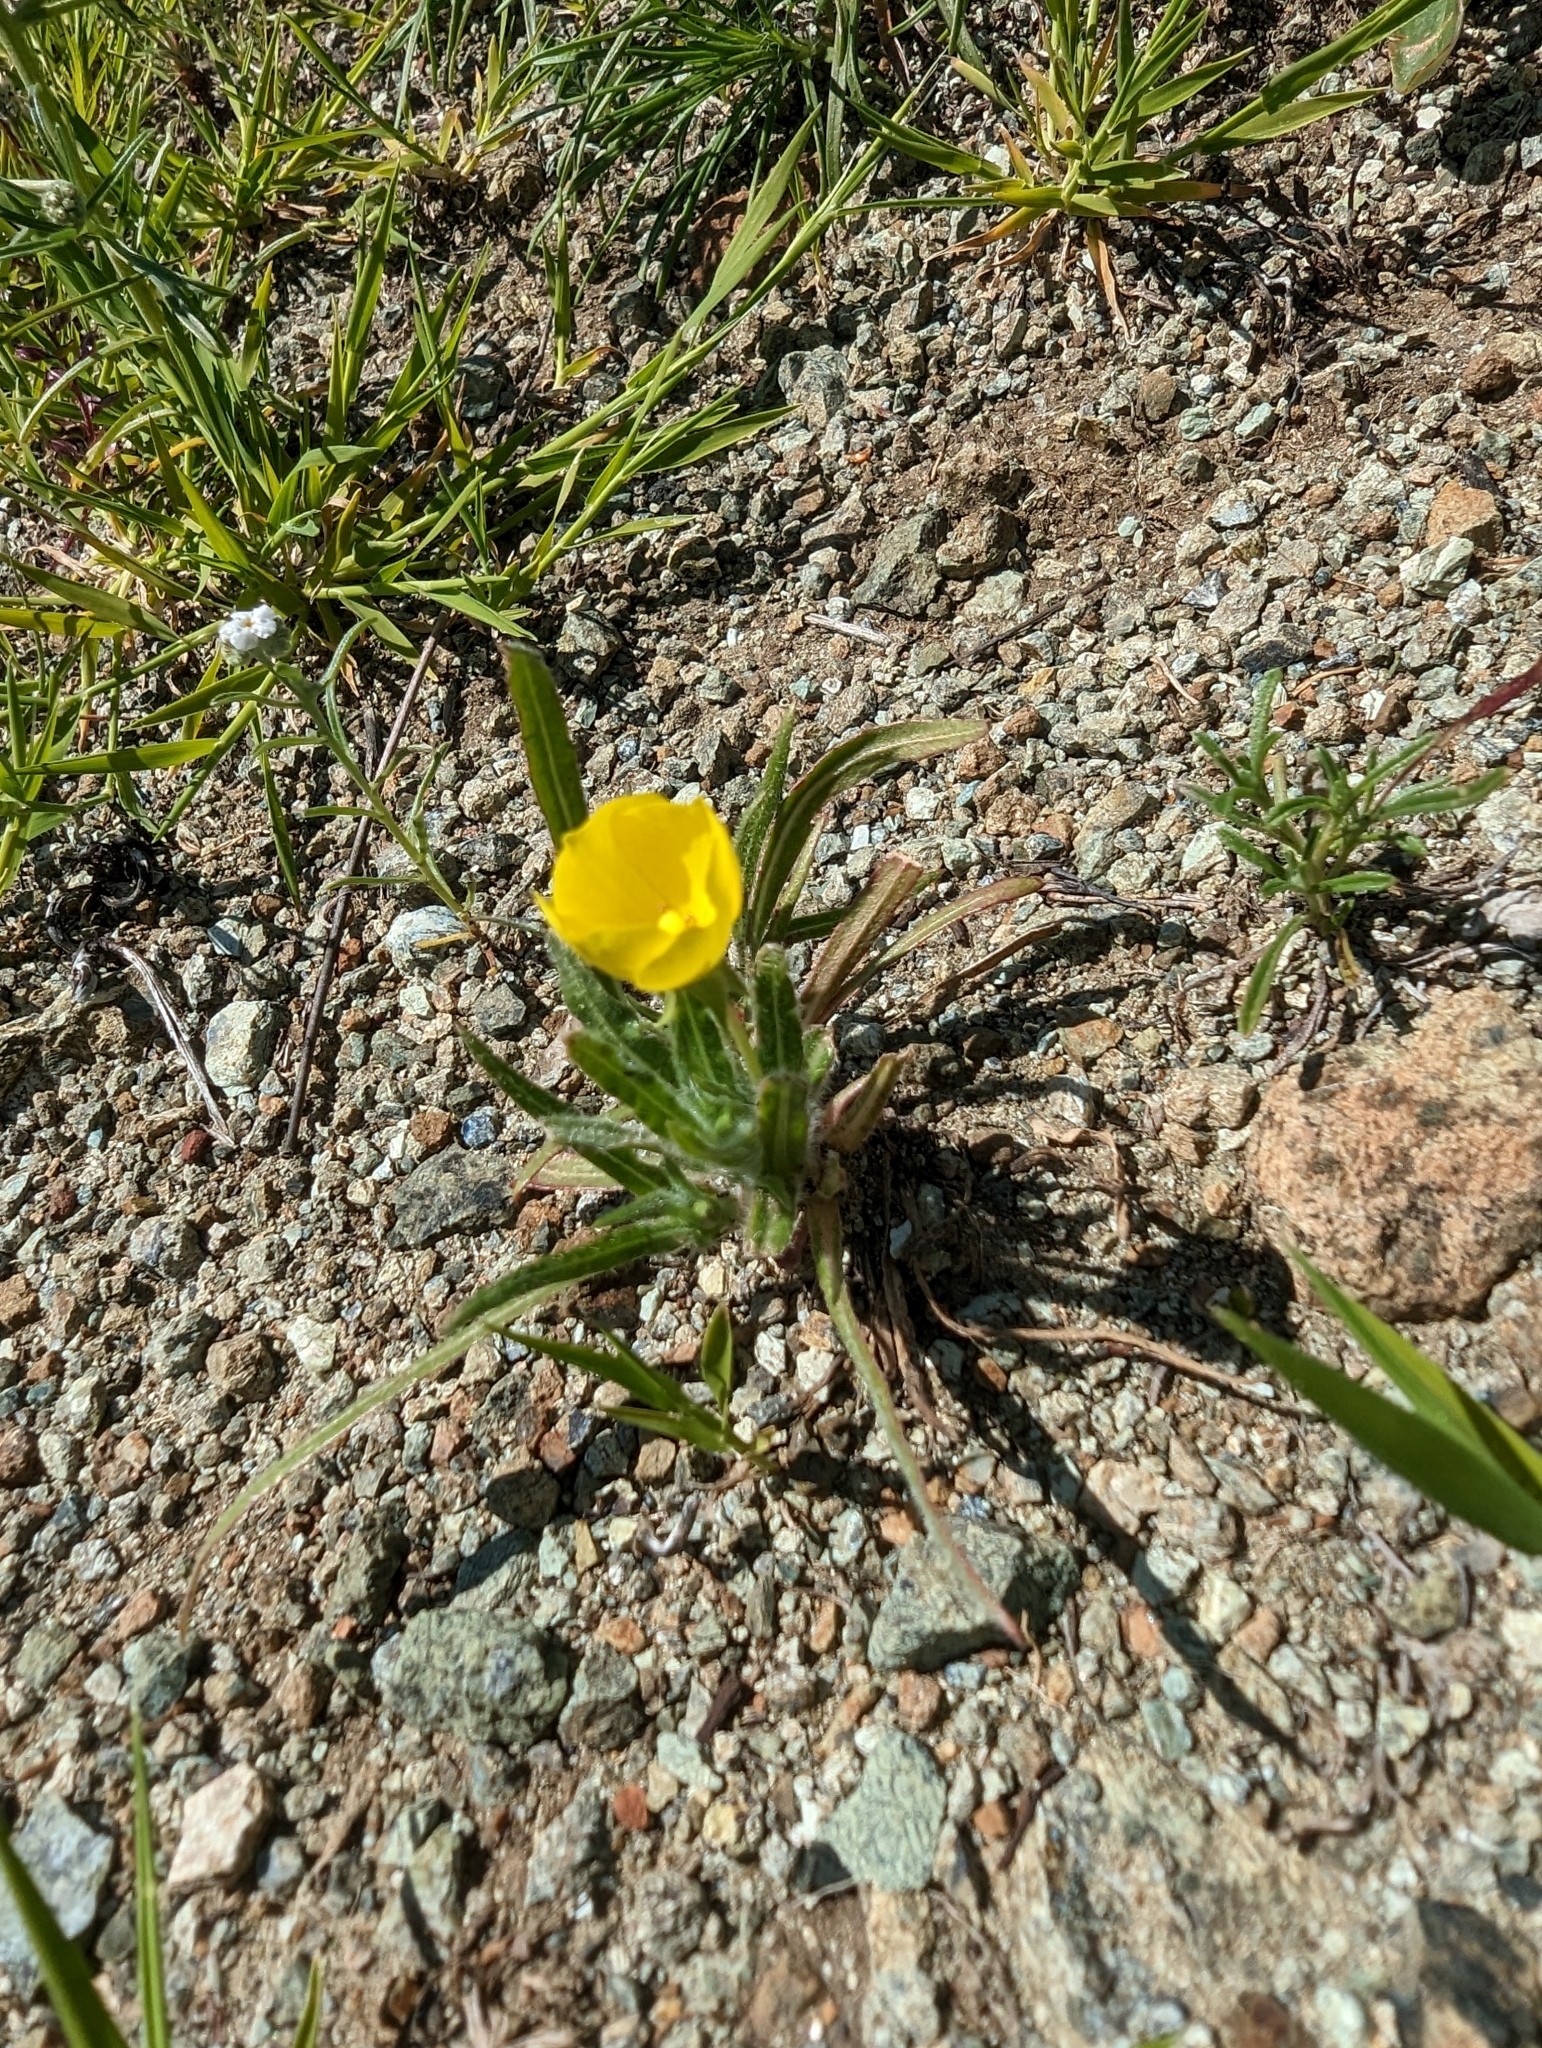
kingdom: Plantae
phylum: Tracheophyta
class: Magnoliopsida
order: Myrtales
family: Onagraceae
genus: Tetrapteron
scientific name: Tetrapteron graciliflorum
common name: Hill suncup
